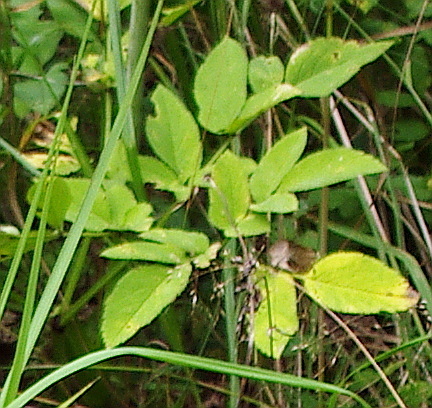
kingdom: Plantae
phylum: Tracheophyta
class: Magnoliopsida
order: Apiales
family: Apiaceae
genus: Aegopodium
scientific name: Aegopodium podagraria
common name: Ground-elder
